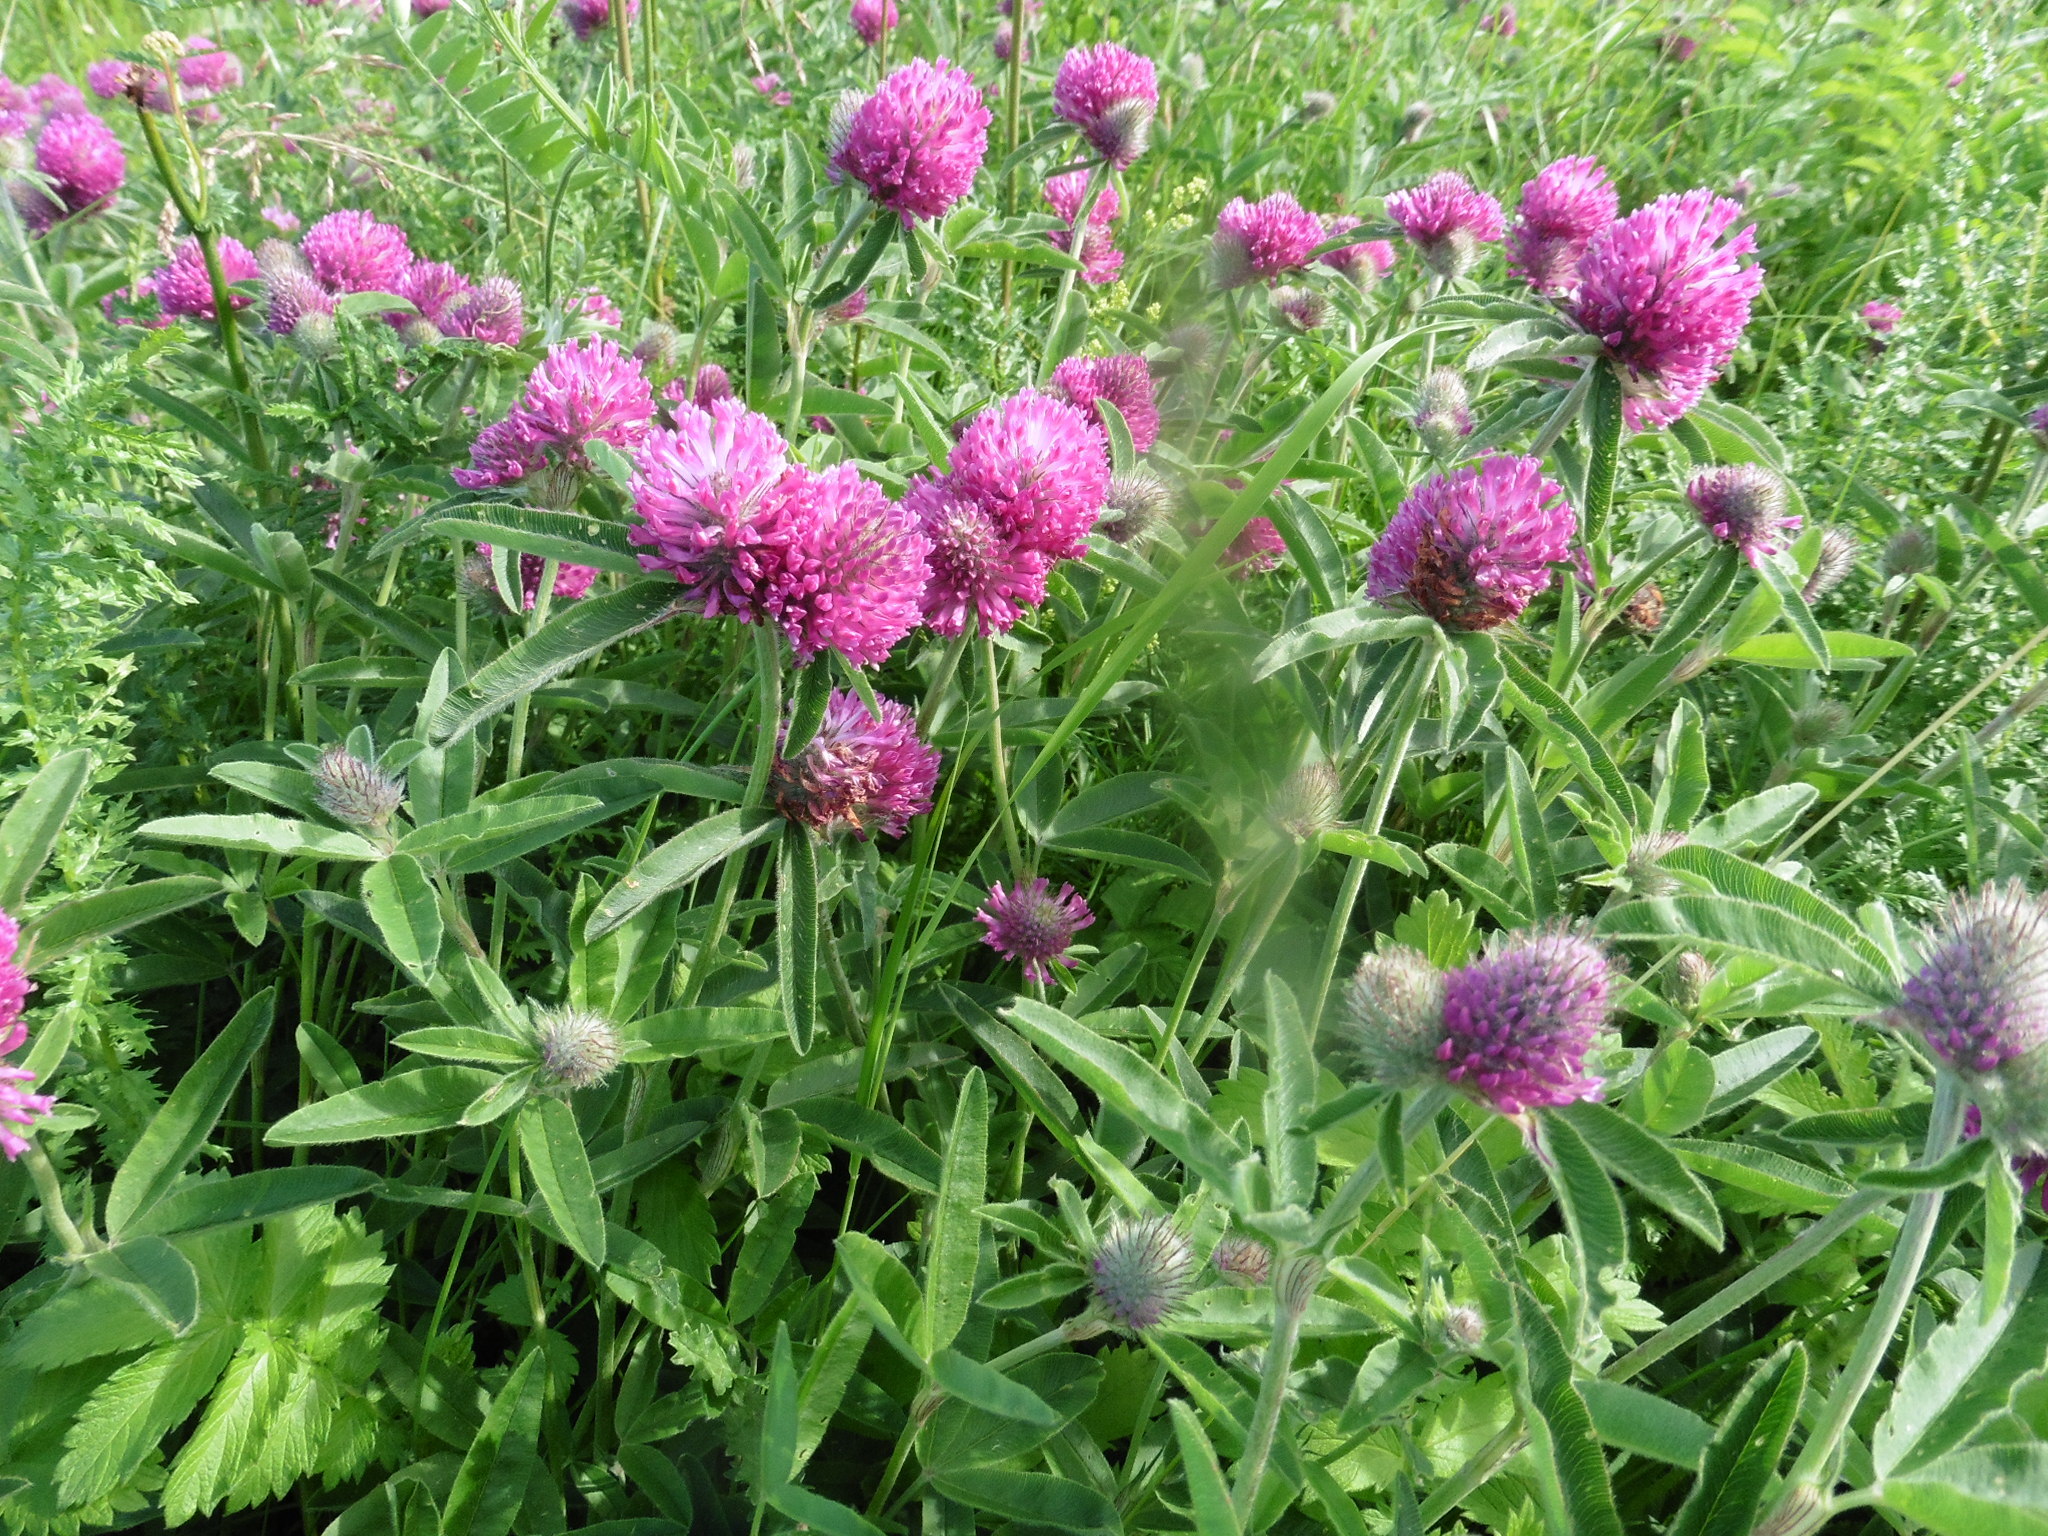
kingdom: Plantae
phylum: Tracheophyta
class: Magnoliopsida
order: Fabales
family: Fabaceae
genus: Trifolium
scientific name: Trifolium alpestre
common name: Owl-head clover
